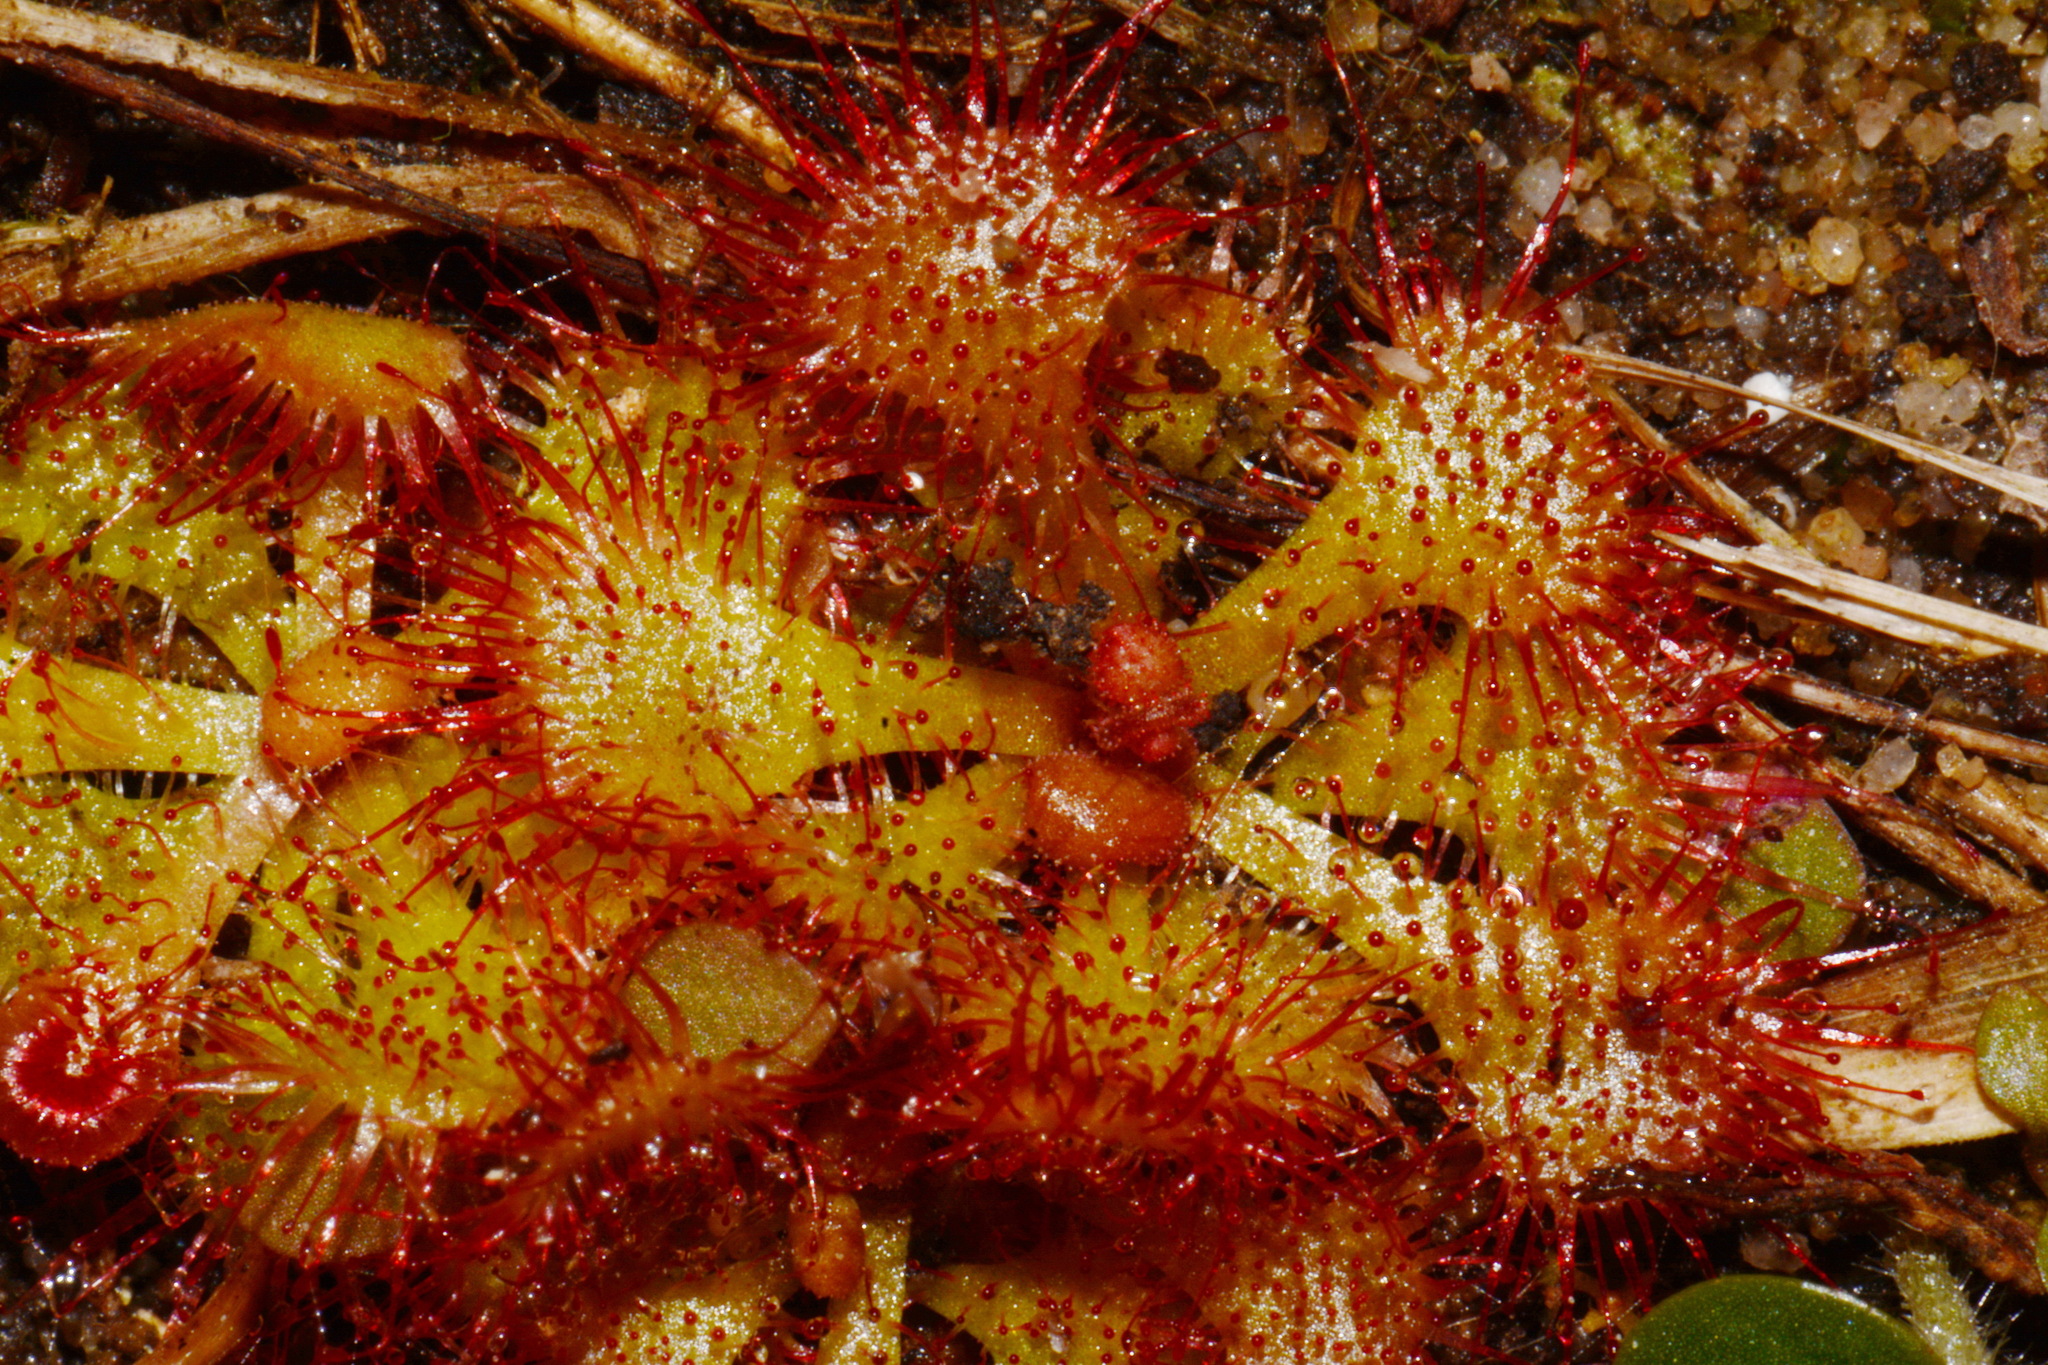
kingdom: Plantae
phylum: Tracheophyta
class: Magnoliopsida
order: Caryophyllales
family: Droseraceae
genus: Drosera
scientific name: Drosera brevifolia
